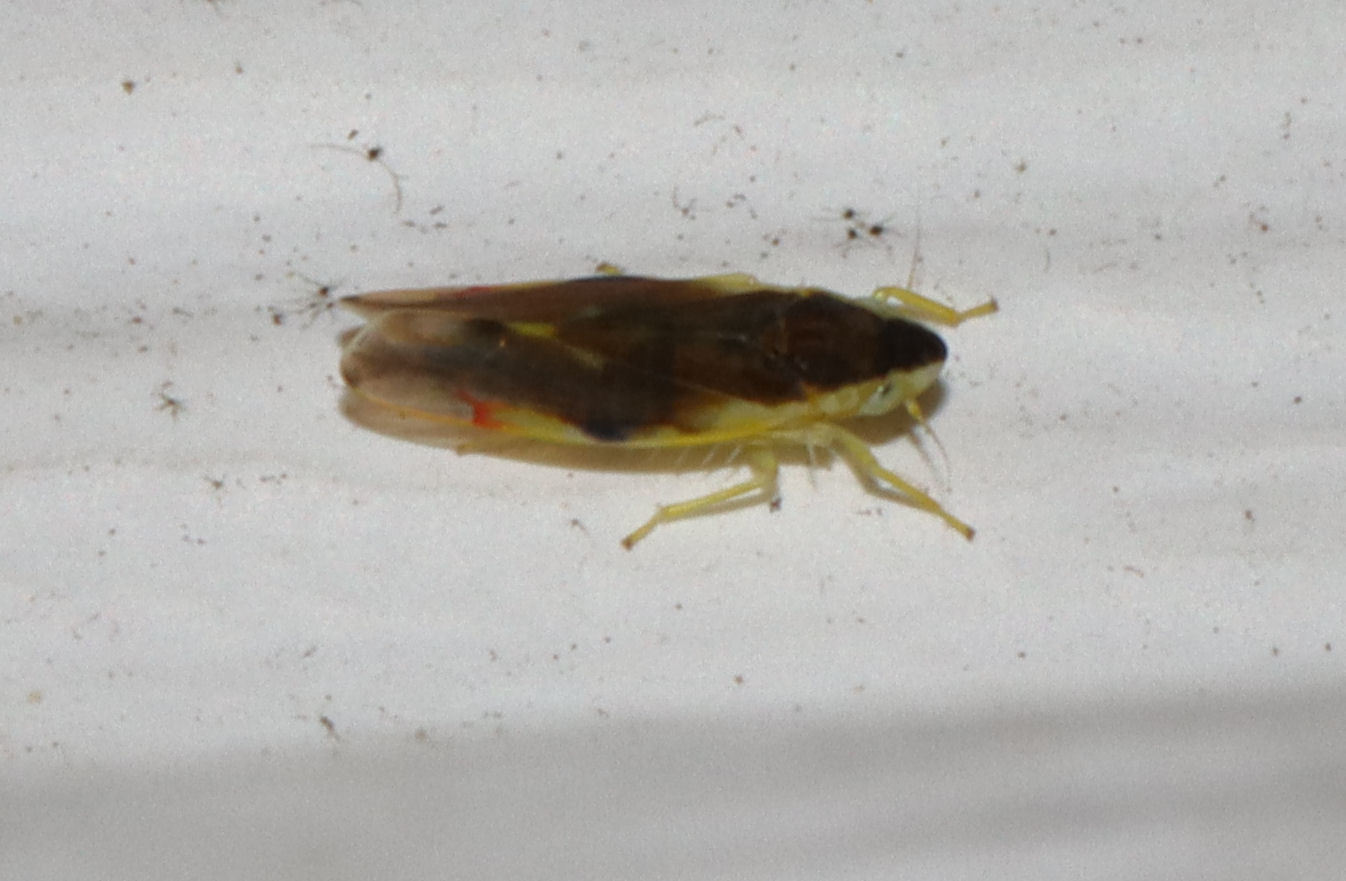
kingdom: Animalia
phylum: Arthropoda
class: Insecta
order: Hemiptera
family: Cicadellidae
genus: Erythroneura
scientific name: Erythroneura aclys
